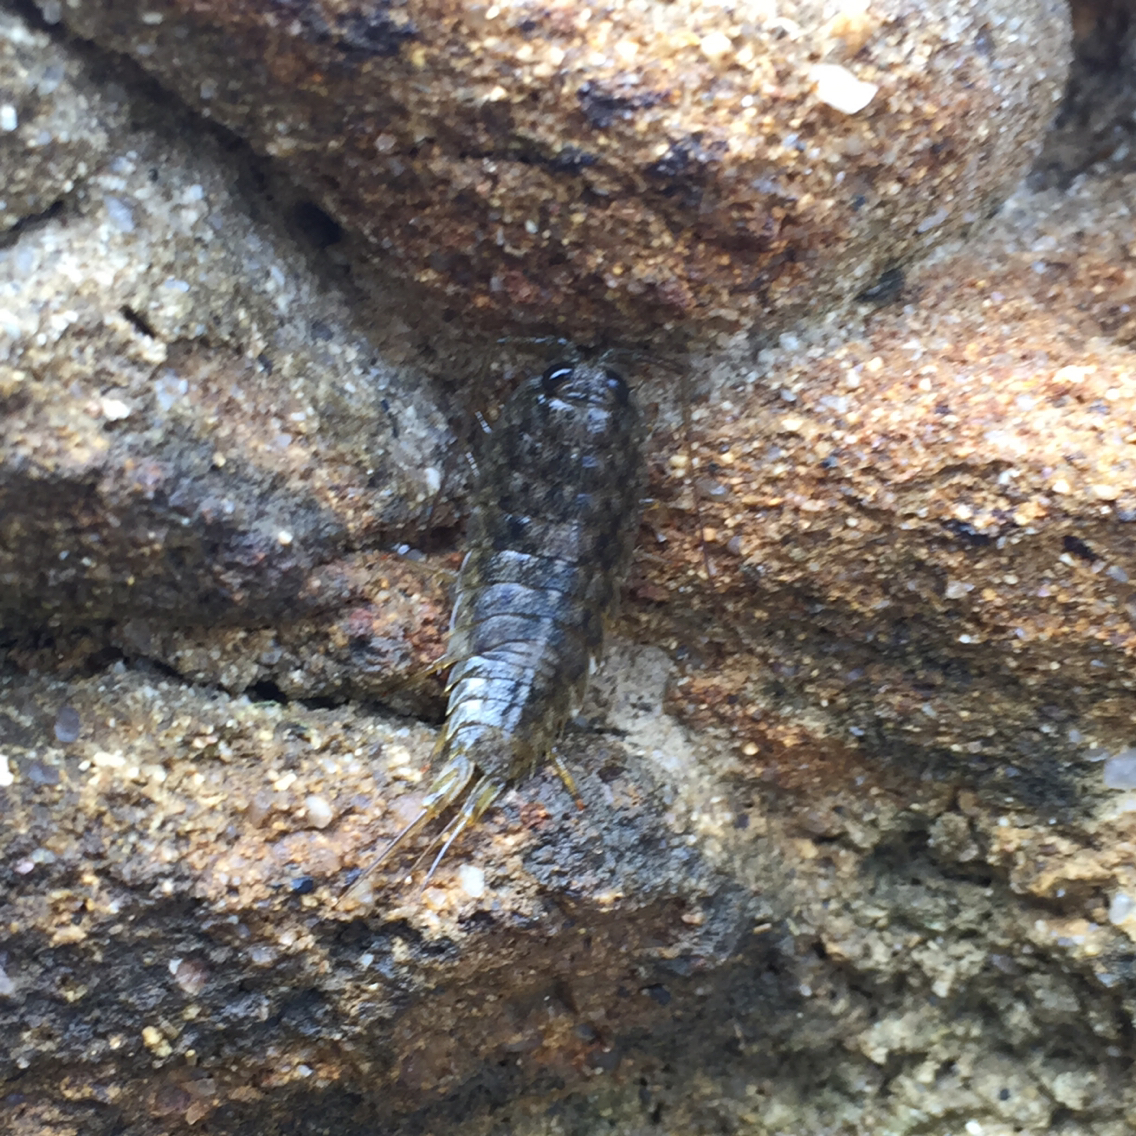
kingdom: Animalia
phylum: Arthropoda
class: Malacostraca
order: Isopoda
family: Ligiidae
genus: Ligia
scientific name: Ligia occidentalis
